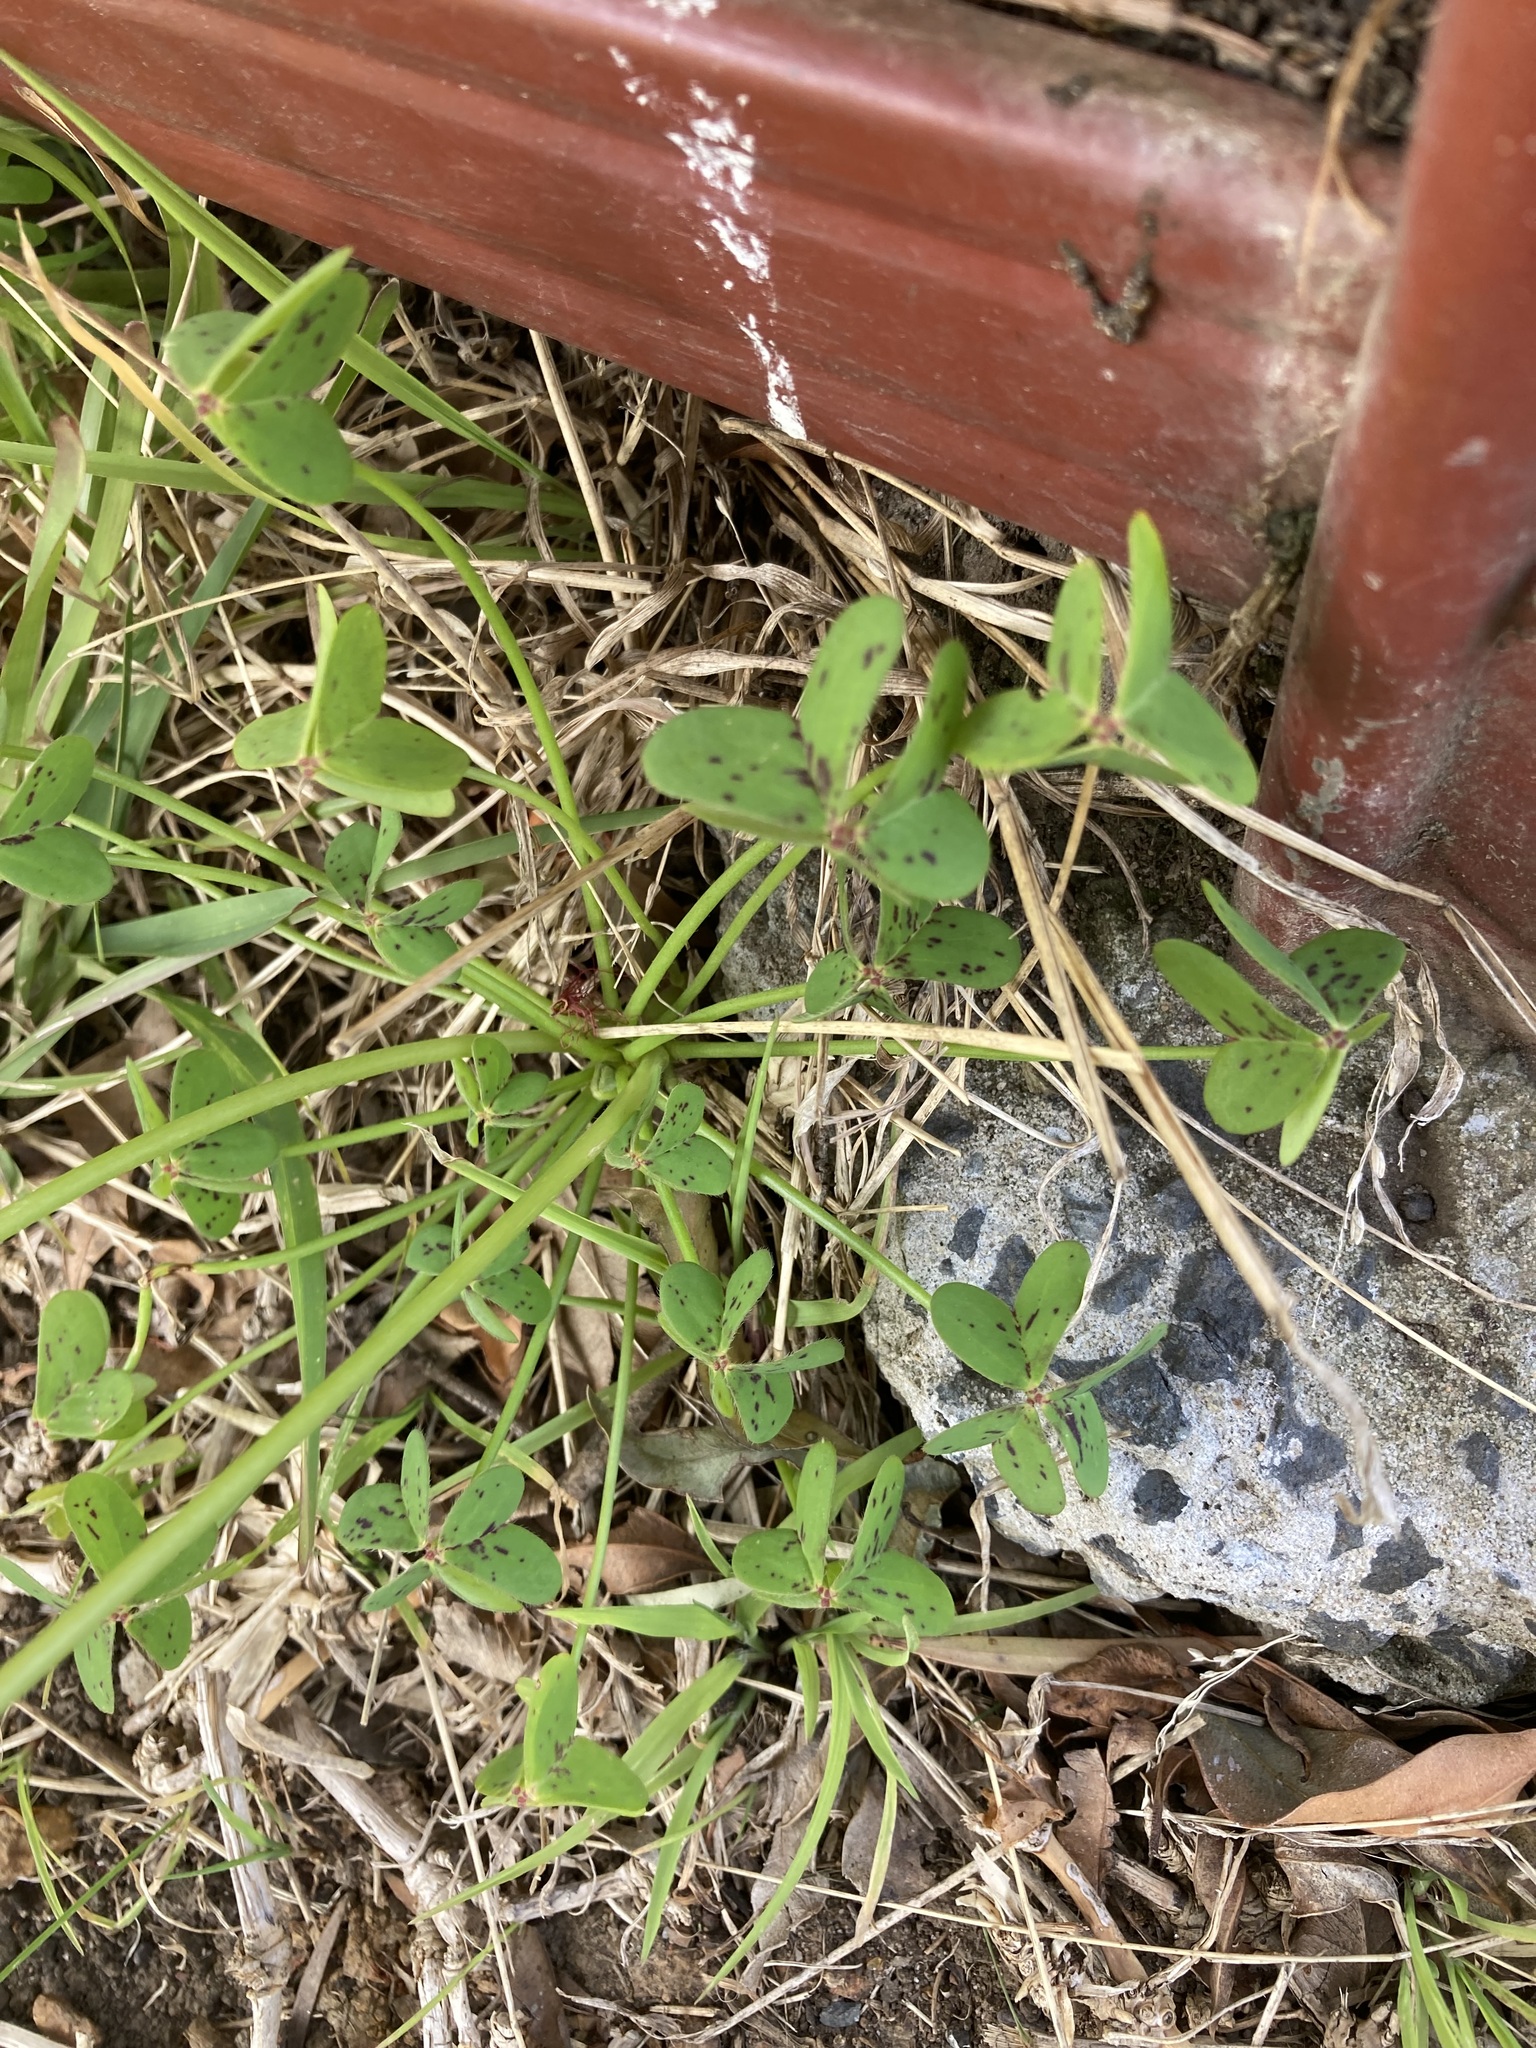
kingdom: Plantae
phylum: Tracheophyta
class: Magnoliopsida
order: Oxalidales
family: Oxalidaceae
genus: Oxalis
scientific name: Oxalis pes-caprae
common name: Bermuda-buttercup
